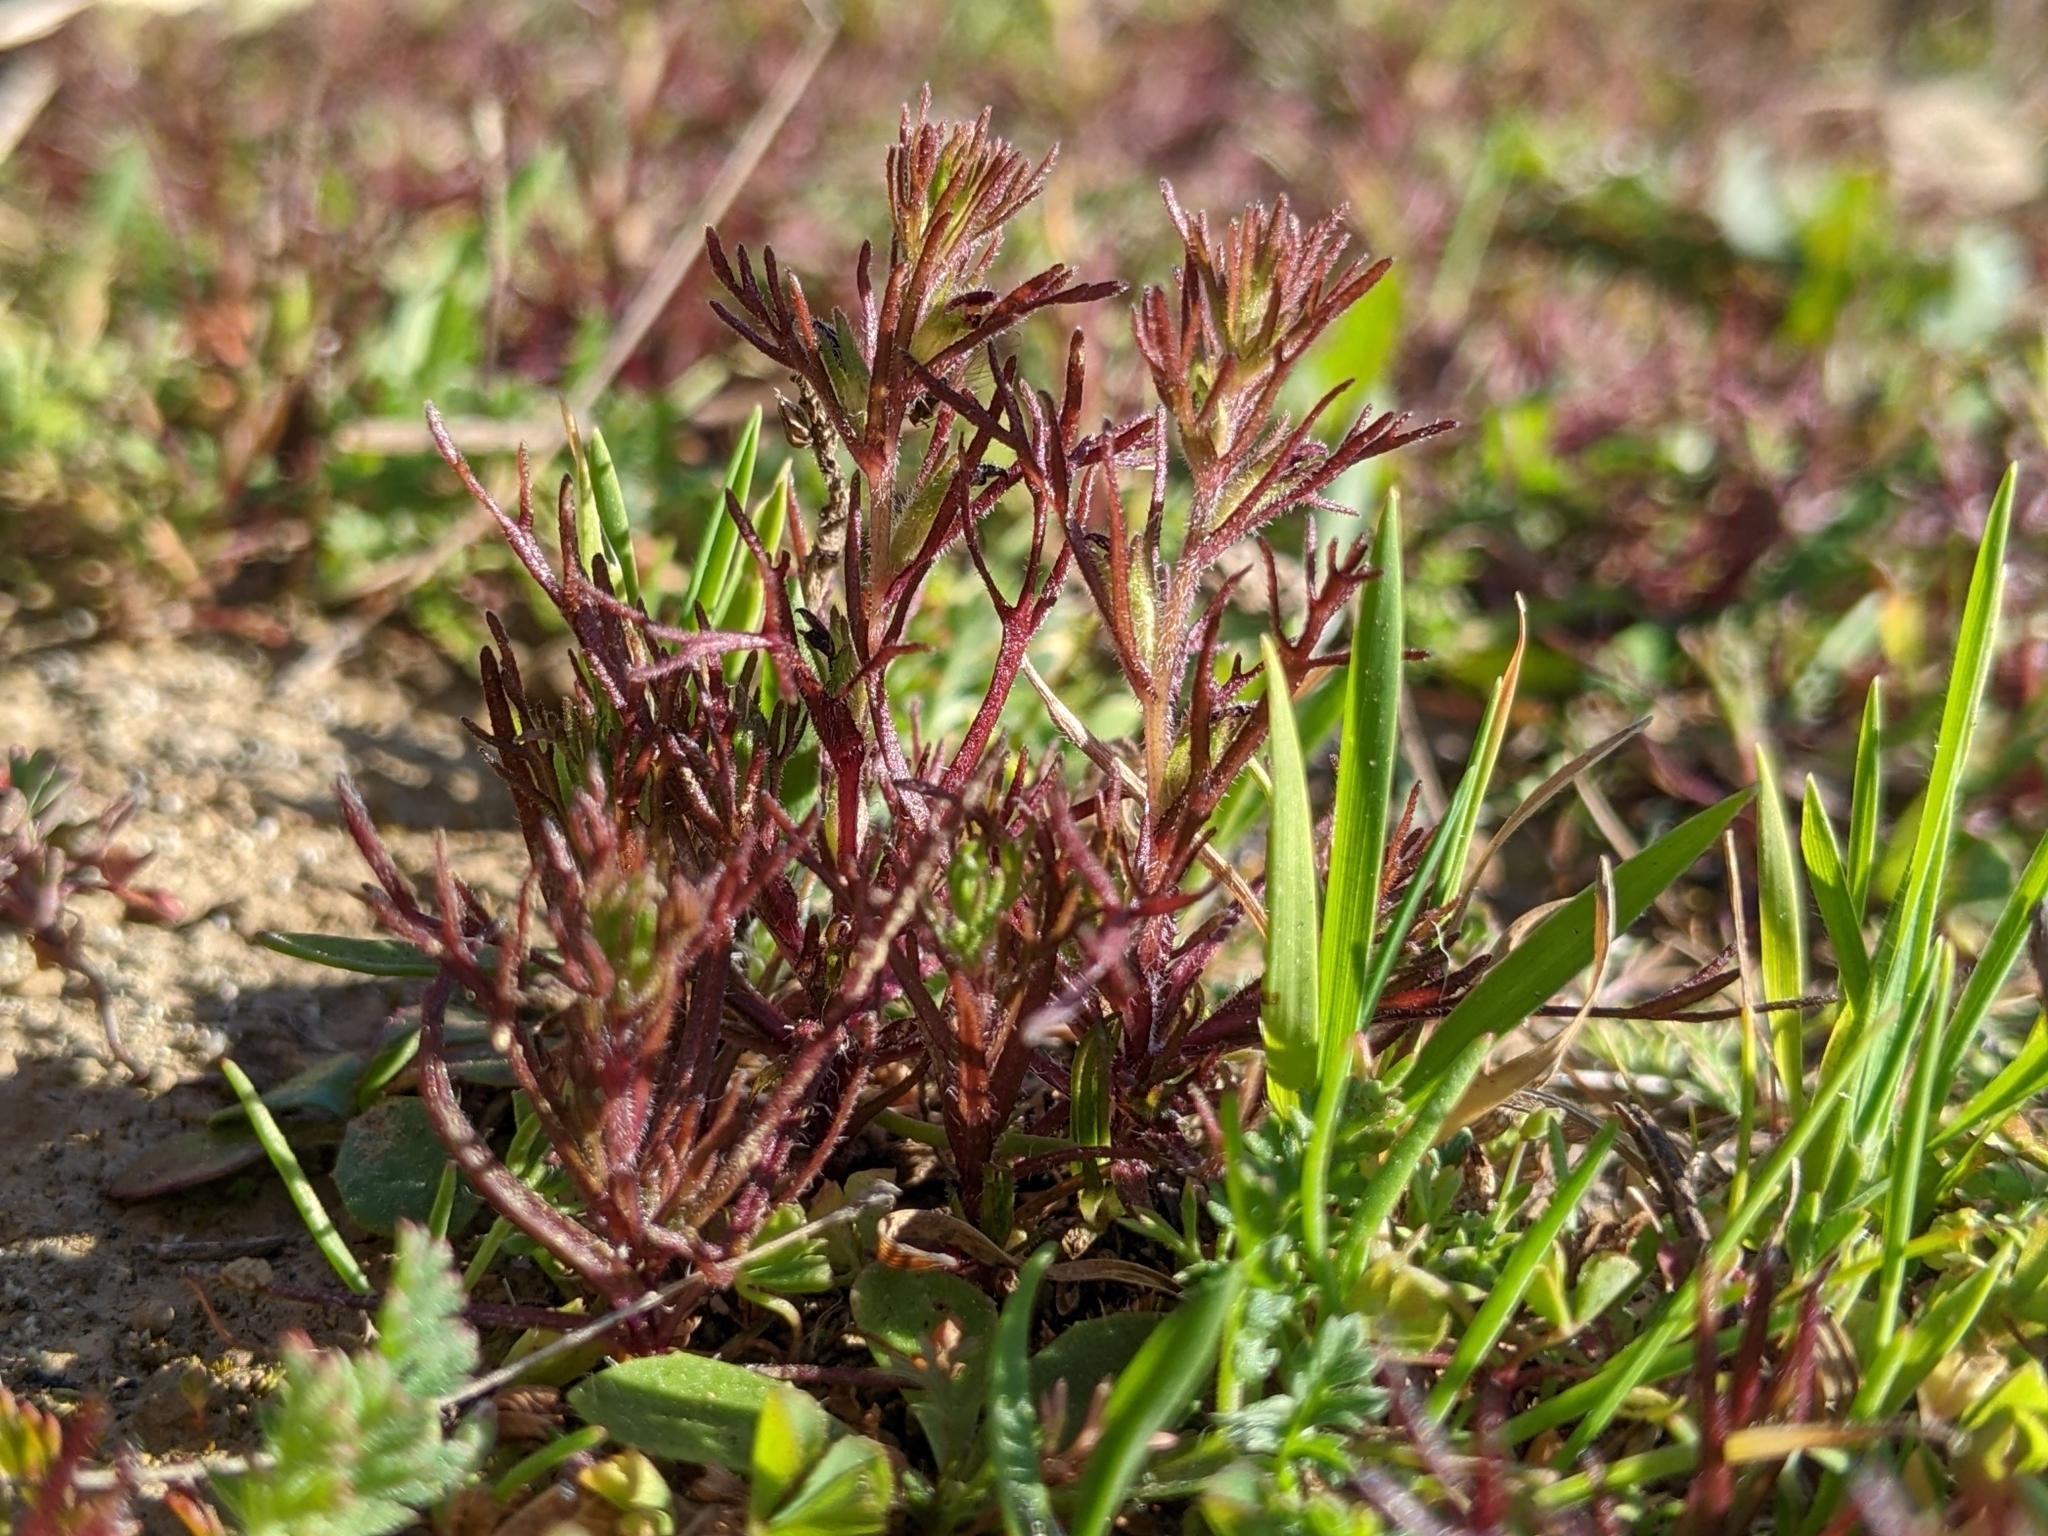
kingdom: Plantae
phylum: Tracheophyta
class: Magnoliopsida
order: Lamiales
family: Orobanchaceae
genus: Triphysaria
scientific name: Triphysaria pusilla
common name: Dwarf false owl-clover
